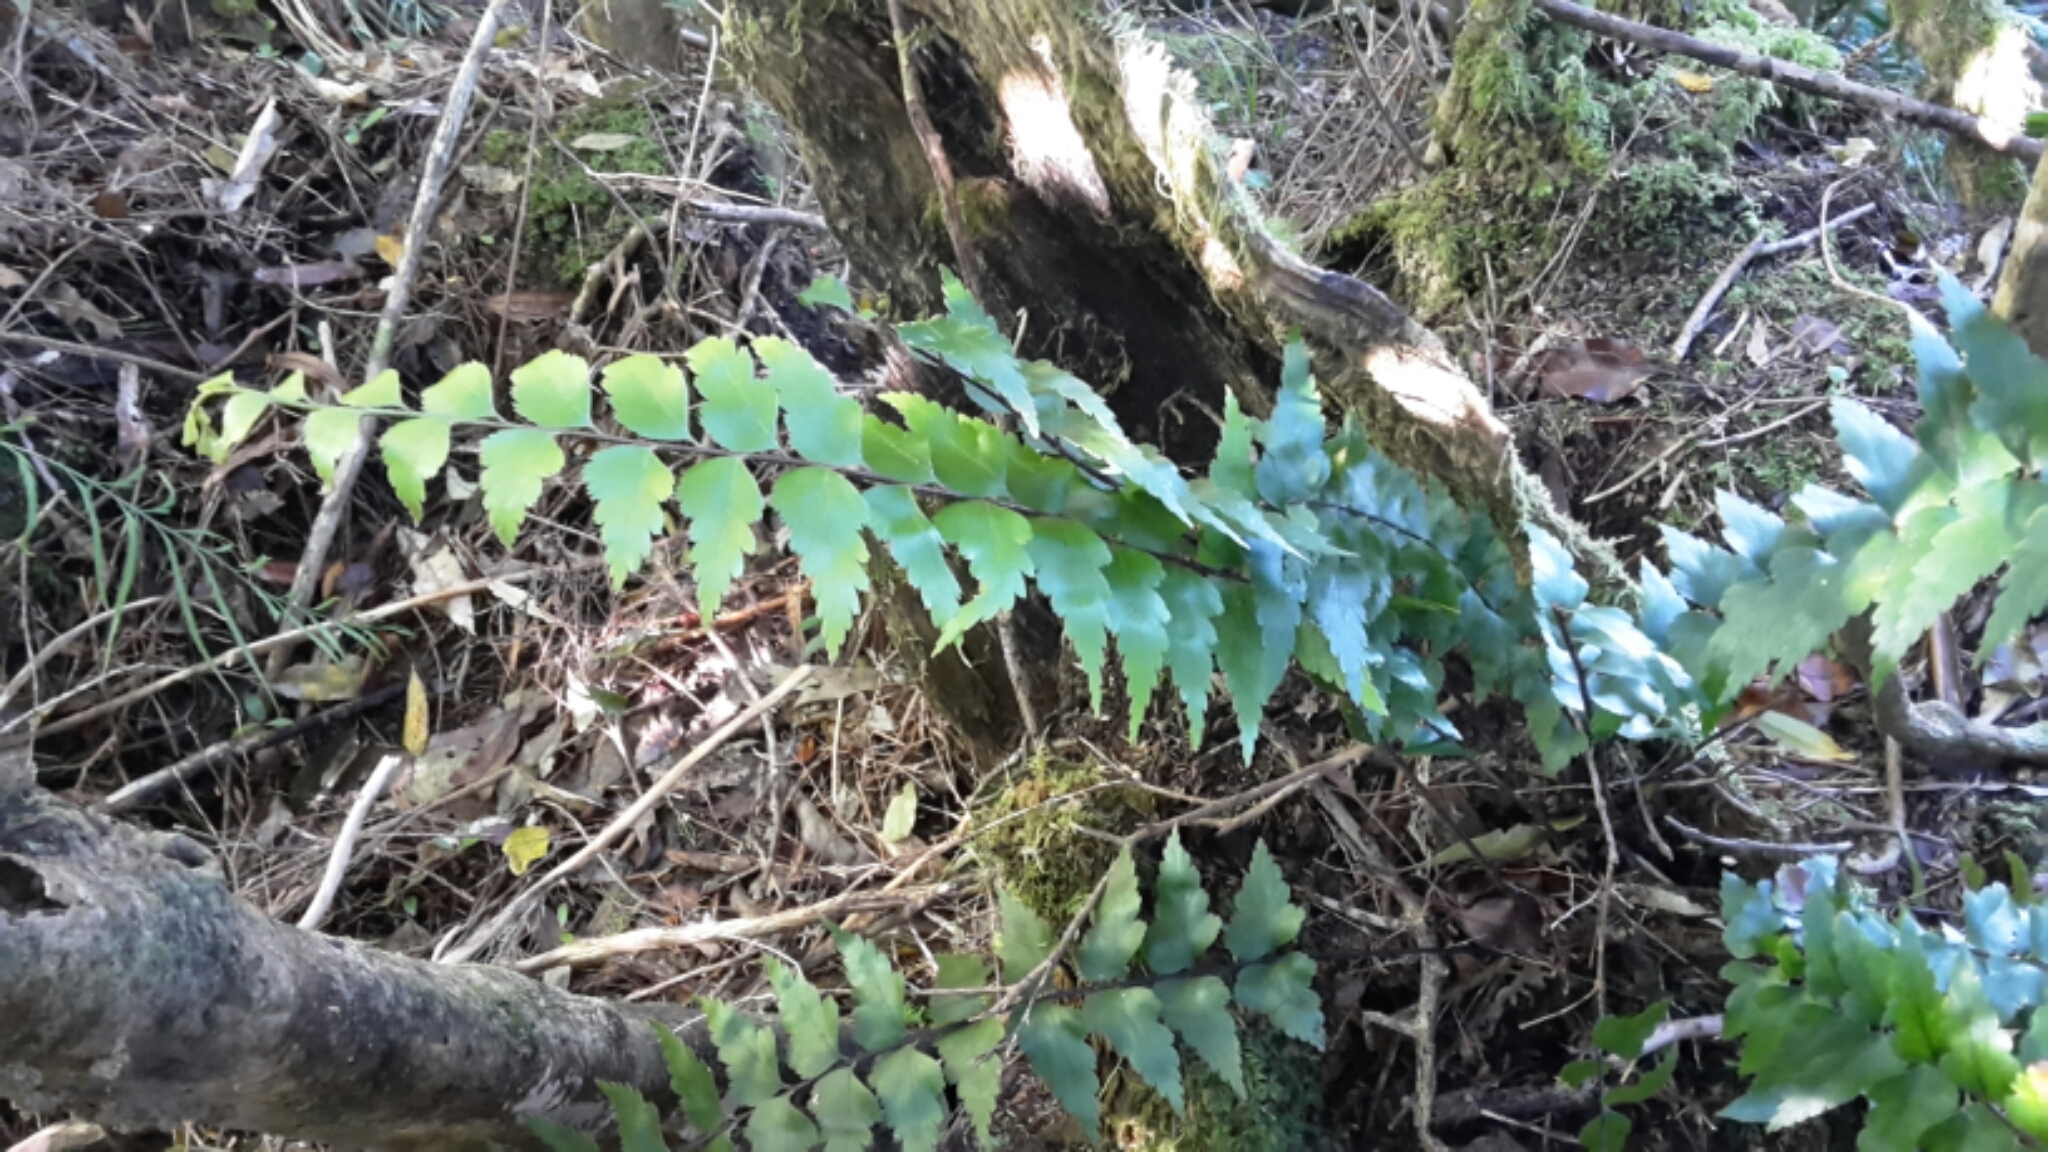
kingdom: Plantae
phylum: Tracheophyta
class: Polypodiopsida
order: Polypodiales
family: Aspleniaceae
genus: Asplenium
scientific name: Asplenium polyodon
